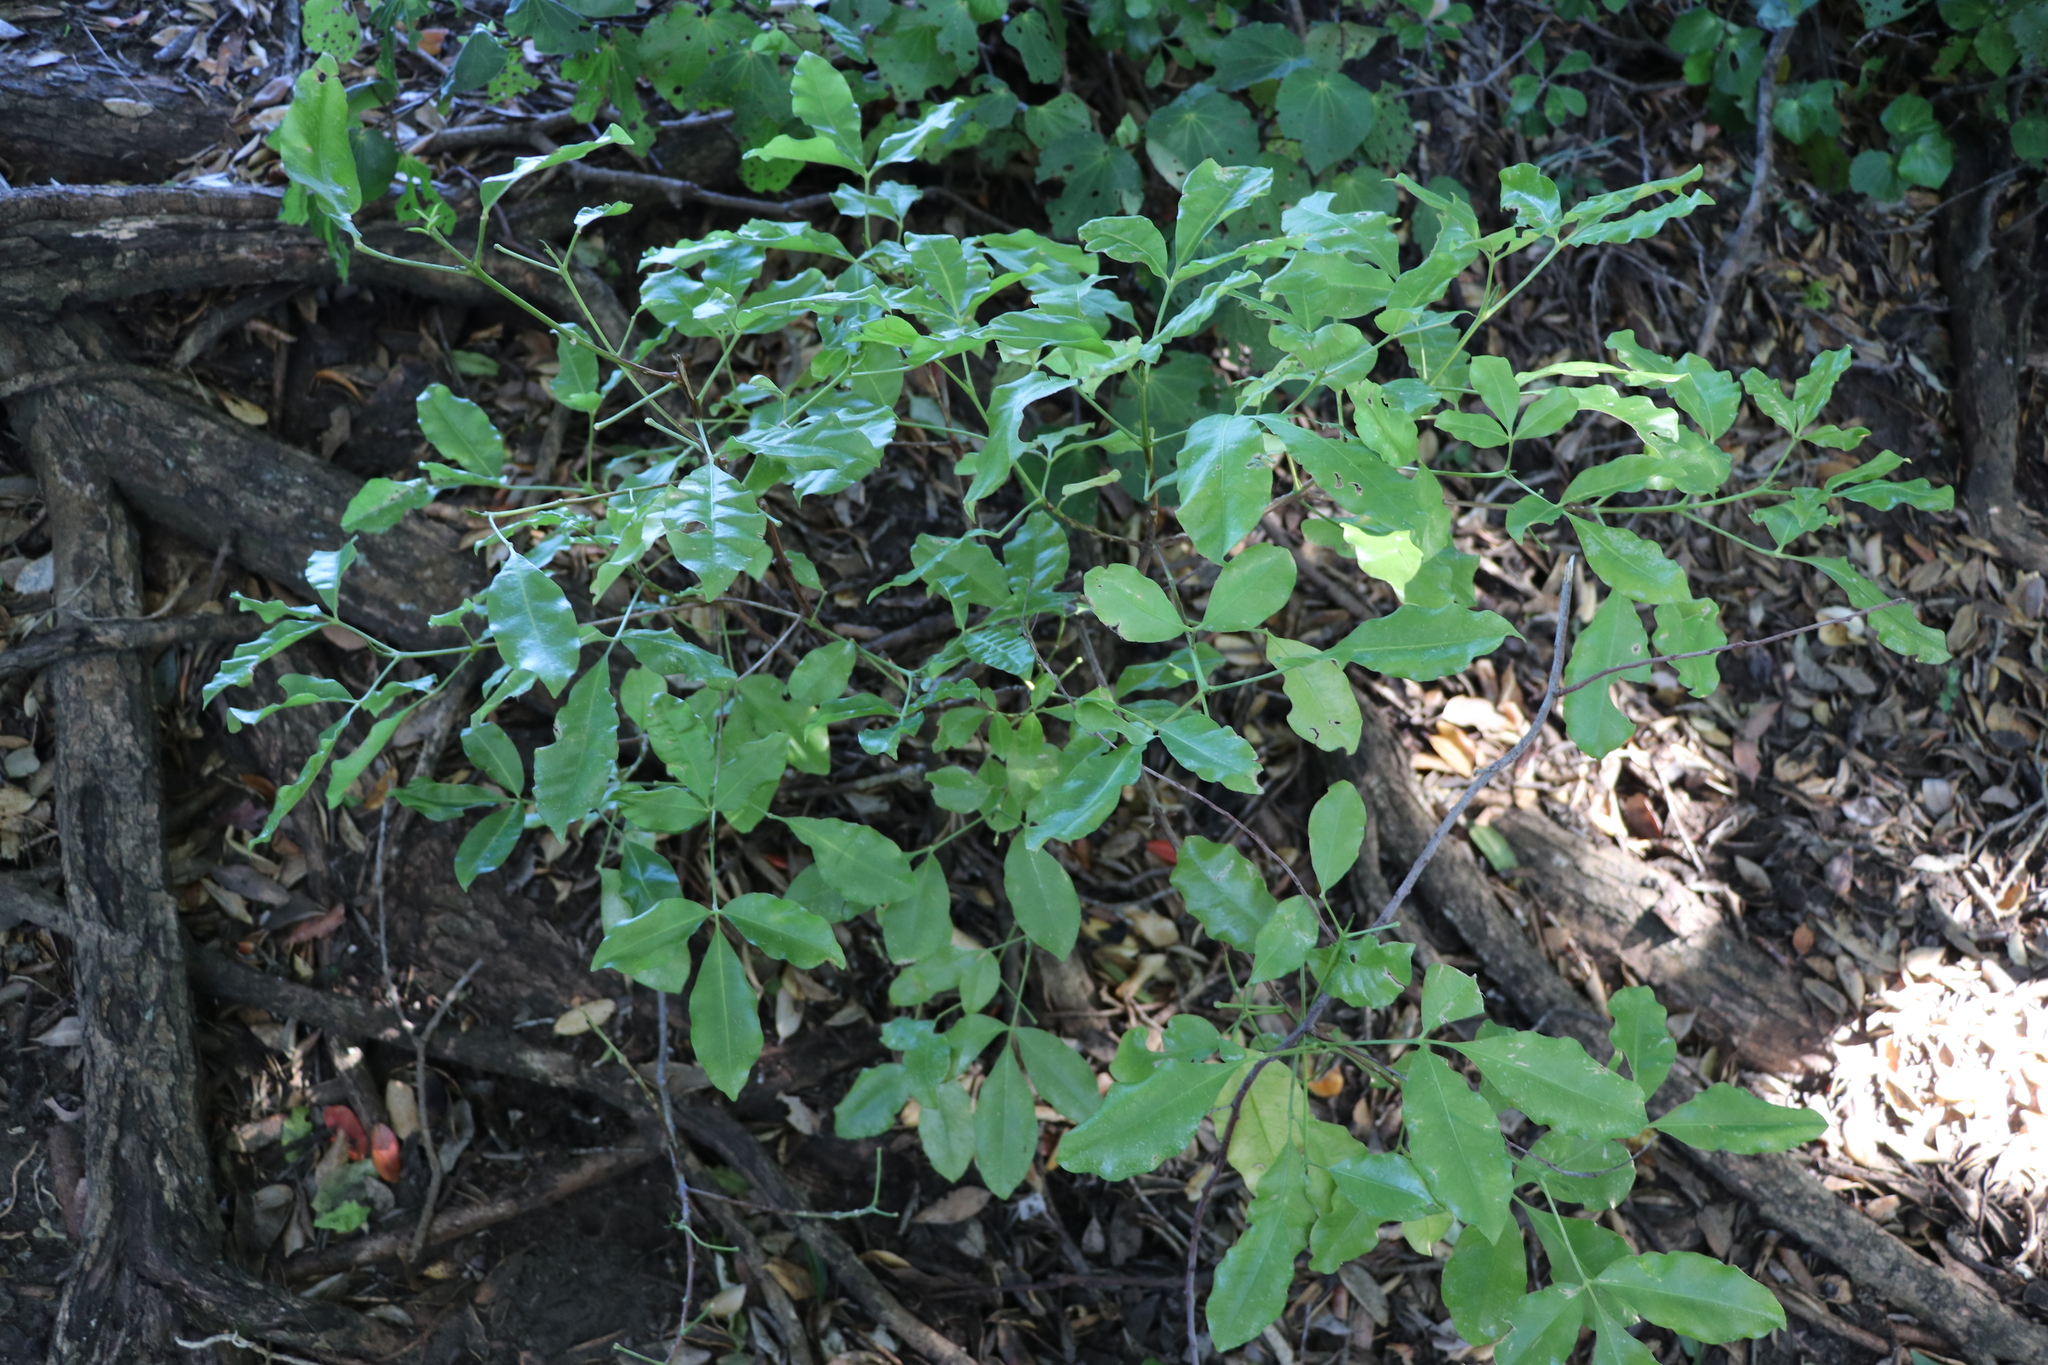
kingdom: Plantae
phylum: Tracheophyta
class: Magnoliopsida
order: Sapindales
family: Rutaceae
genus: Melicope
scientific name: Melicope ternata
